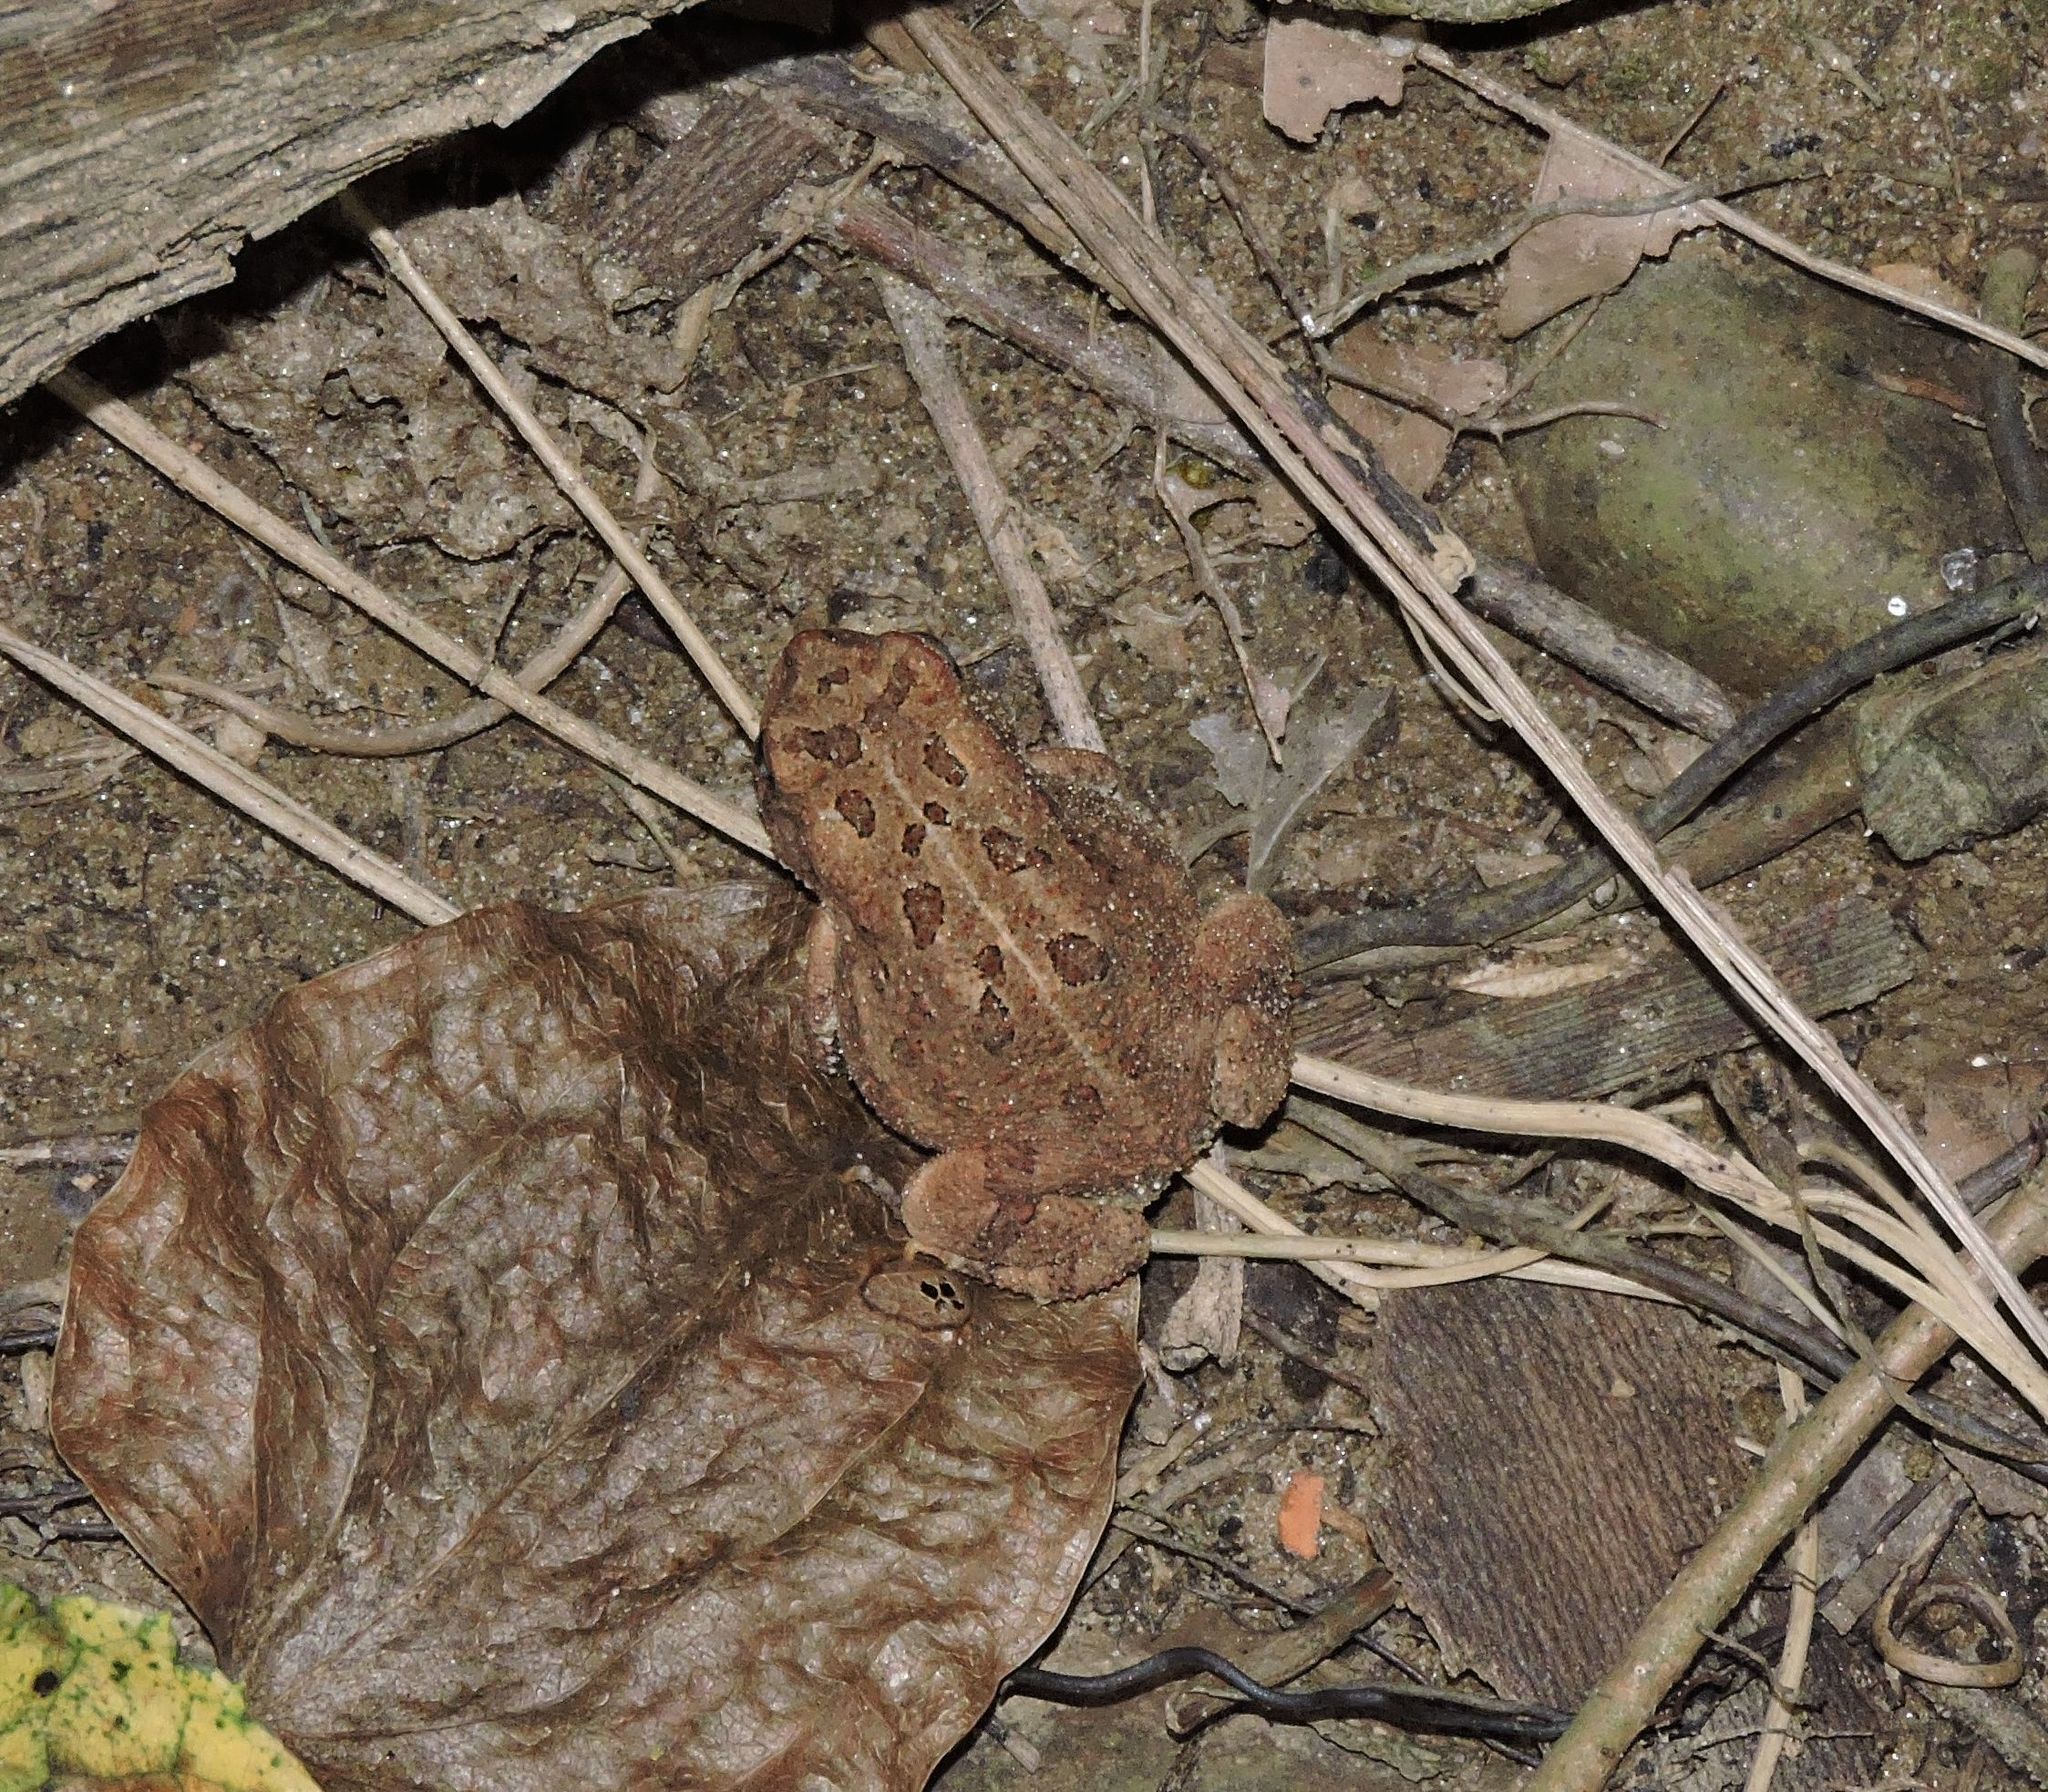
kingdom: Animalia
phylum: Chordata
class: Amphibia
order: Anura
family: Bufonidae
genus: Anaxyrus
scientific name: Anaxyrus fowleri
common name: Fowler's toad
